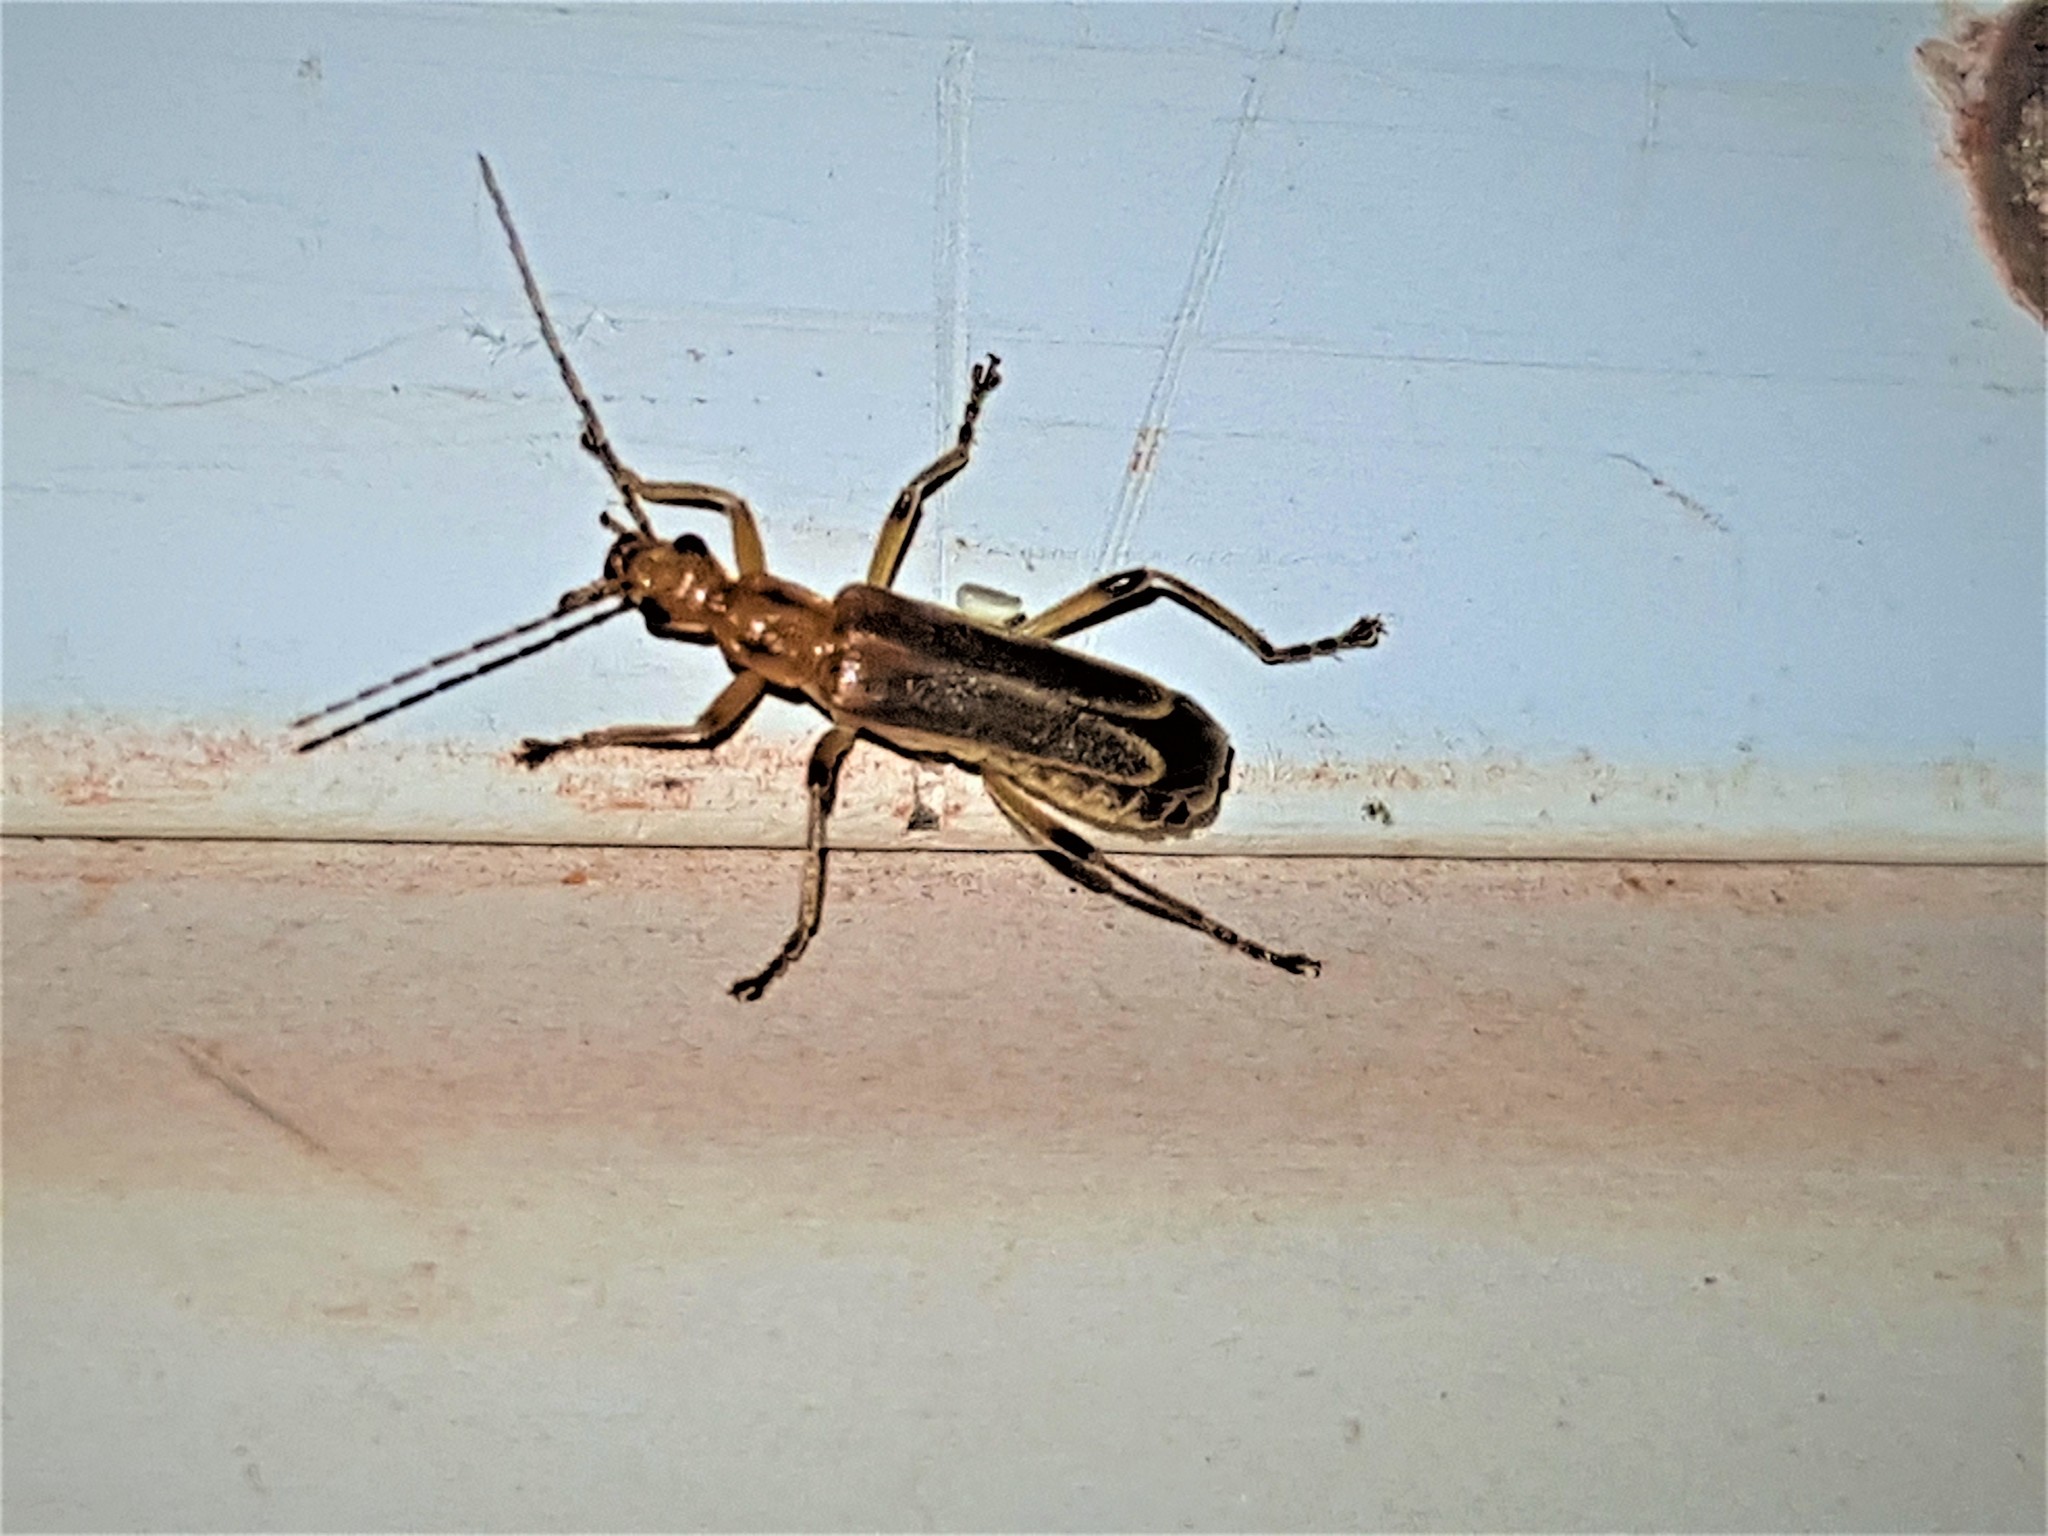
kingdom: Animalia
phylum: Arthropoda
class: Insecta
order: Coleoptera
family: Cantharidae
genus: Chauliognathus
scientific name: Chauliognathus brunneobivittatus
